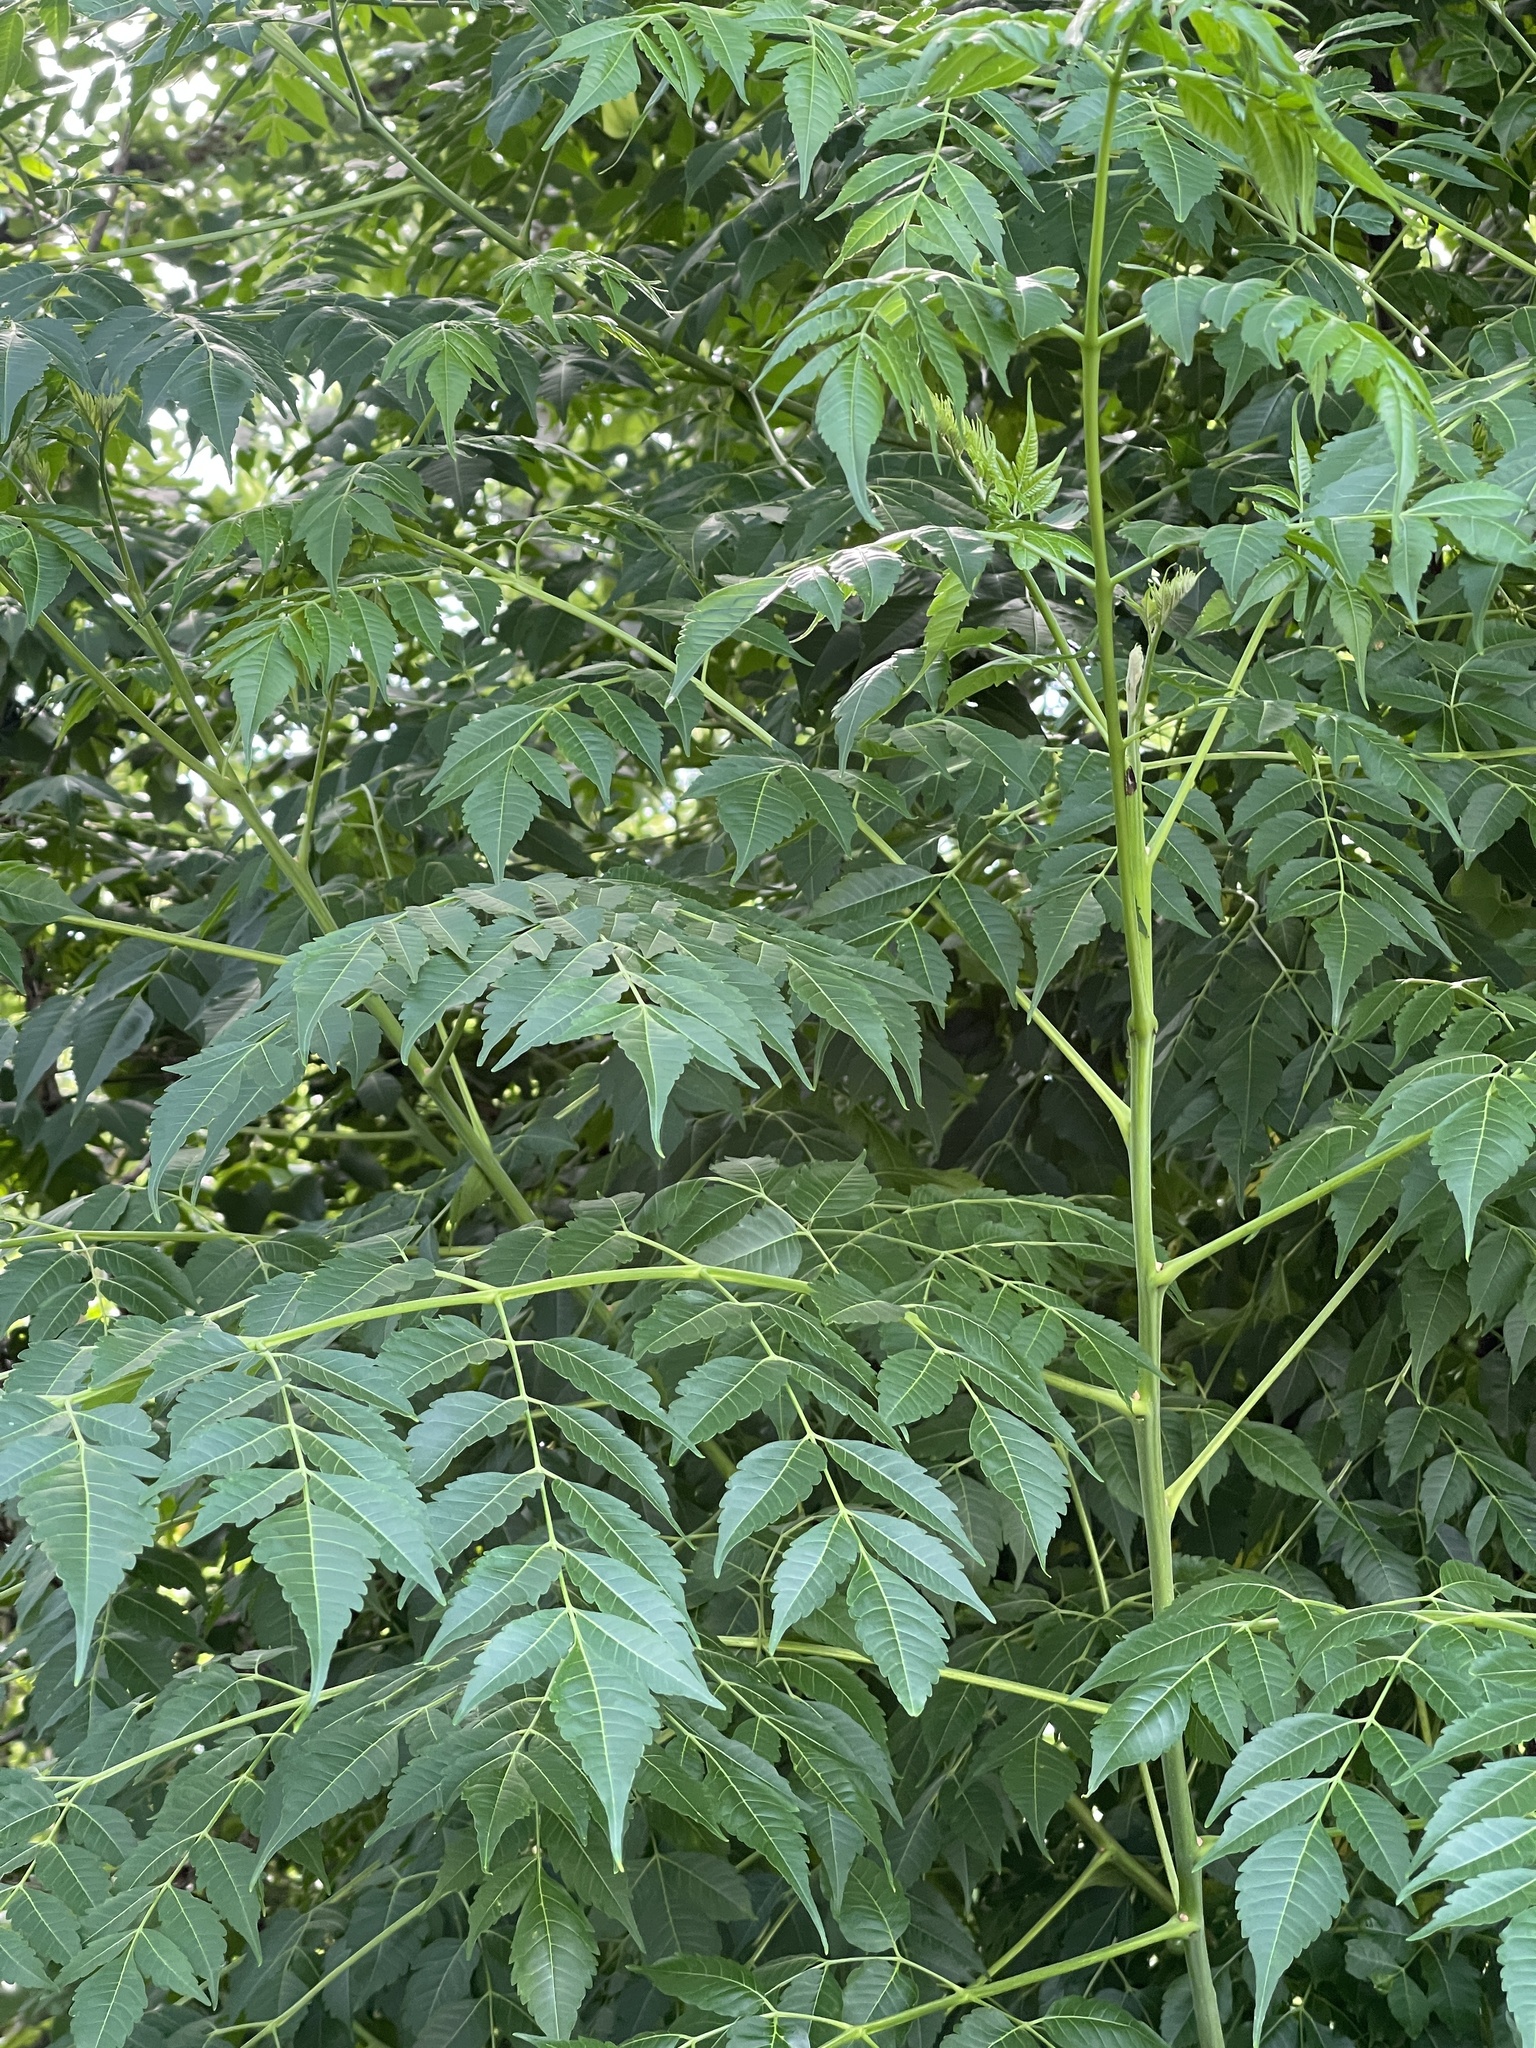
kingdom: Plantae
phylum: Tracheophyta
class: Magnoliopsida
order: Sapindales
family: Meliaceae
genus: Melia
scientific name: Melia azedarach
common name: Chinaberrytree
